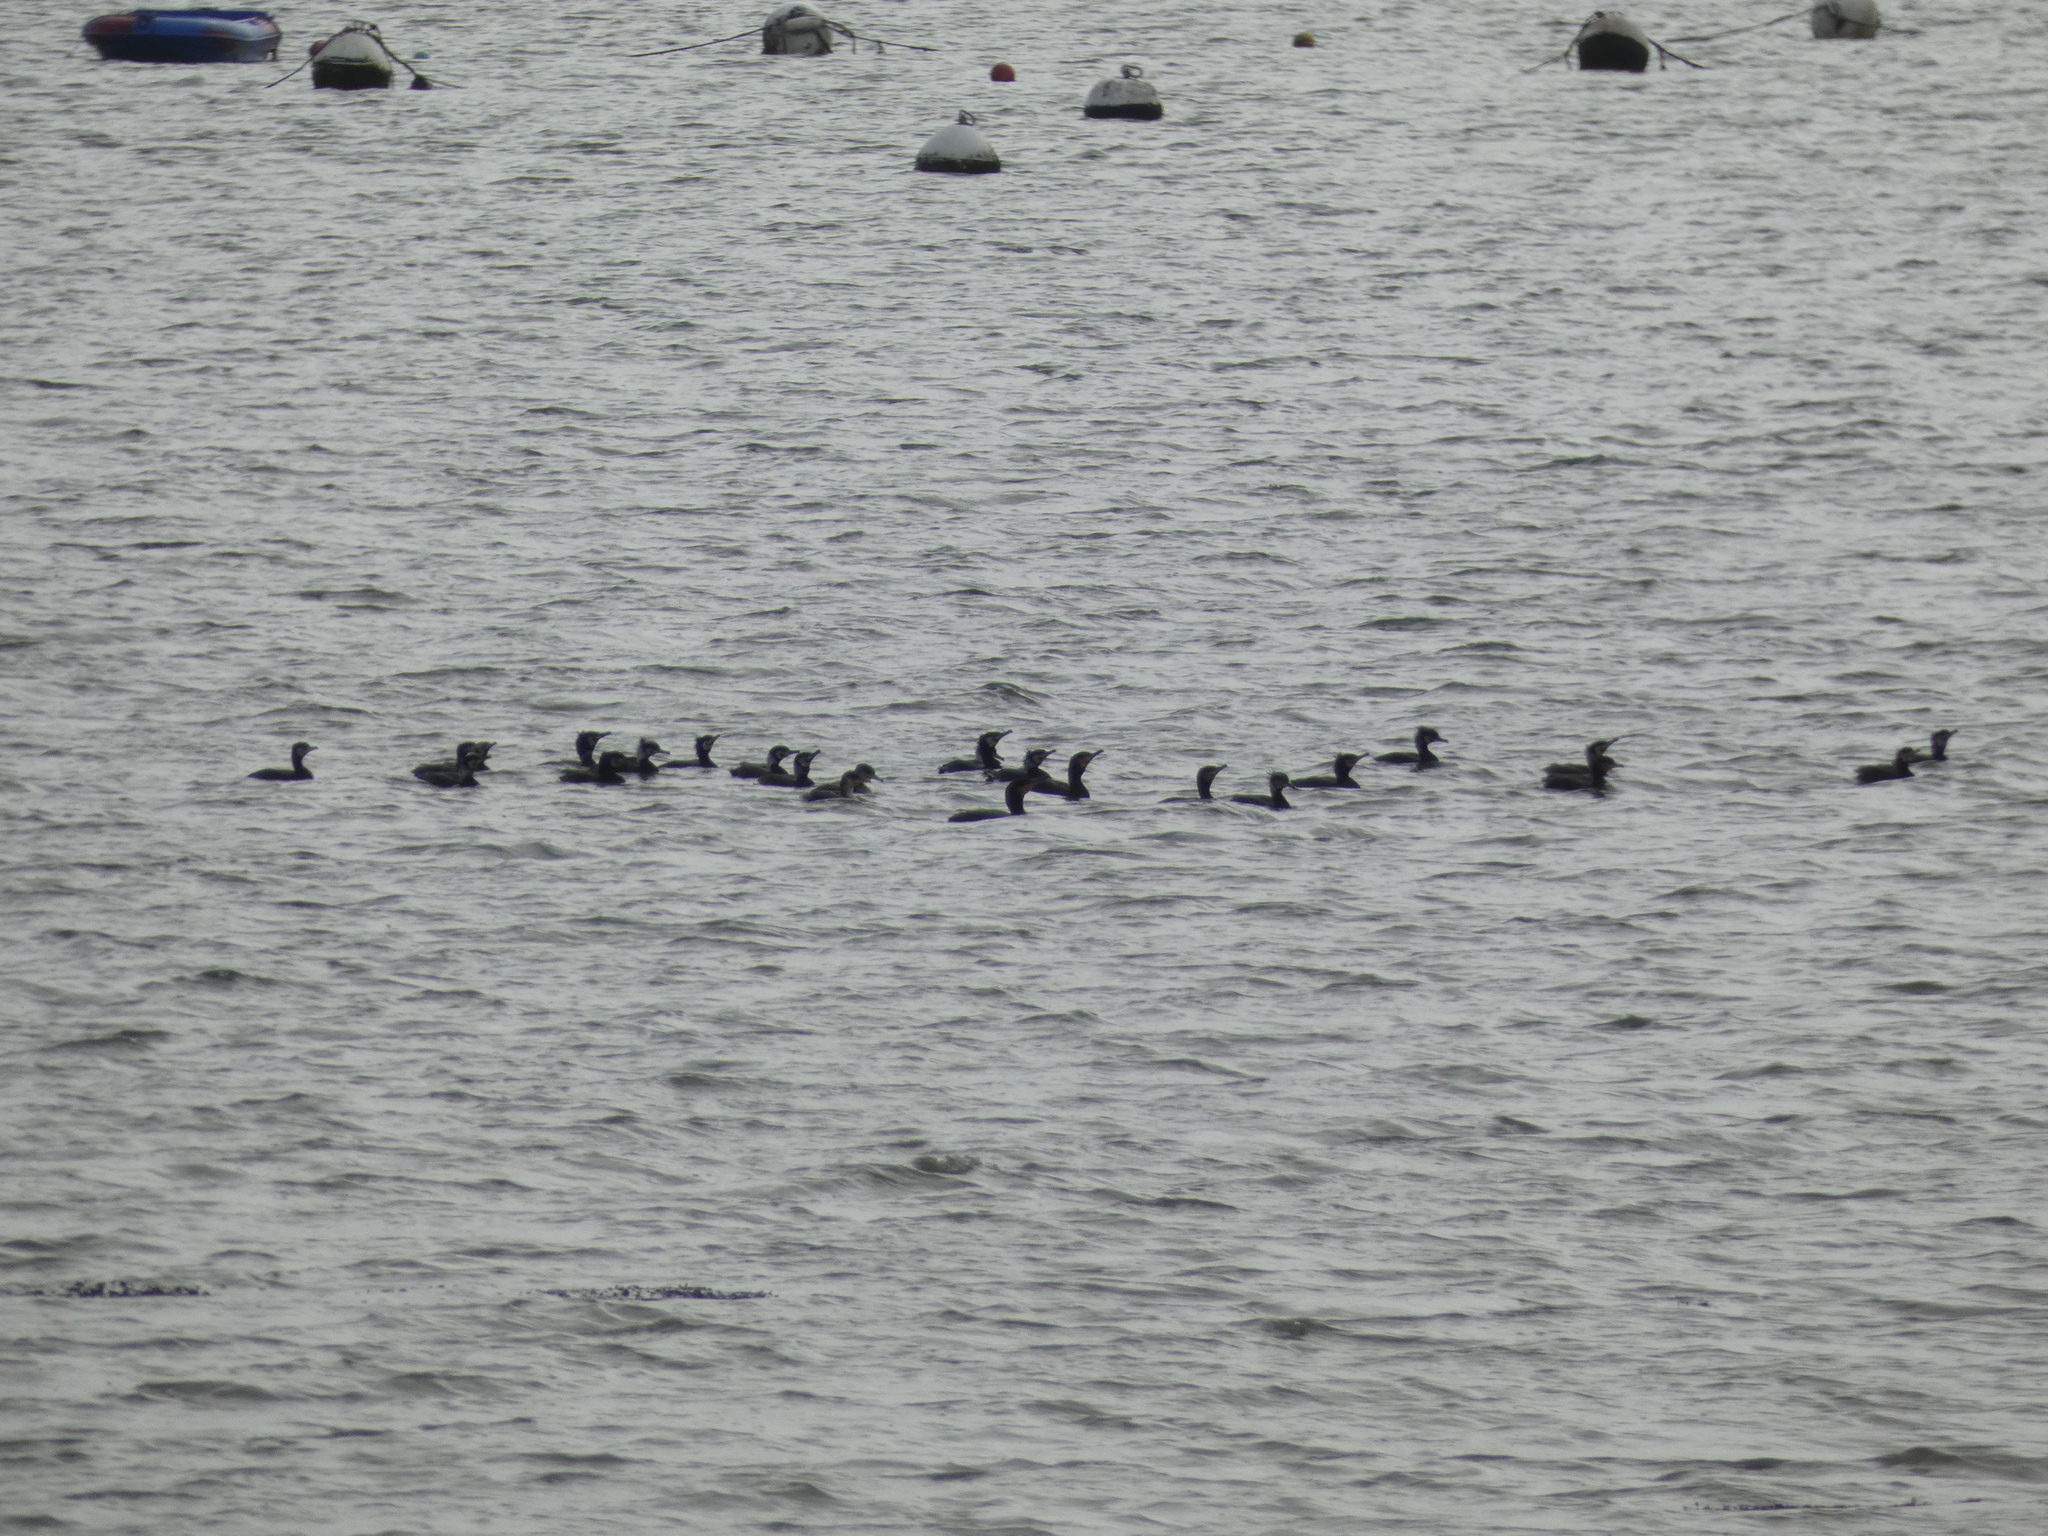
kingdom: Animalia
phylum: Chordata
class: Aves
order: Suliformes
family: Phalacrocoracidae
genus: Phalacrocorax
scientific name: Phalacrocorax carbo
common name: Great cormorant
